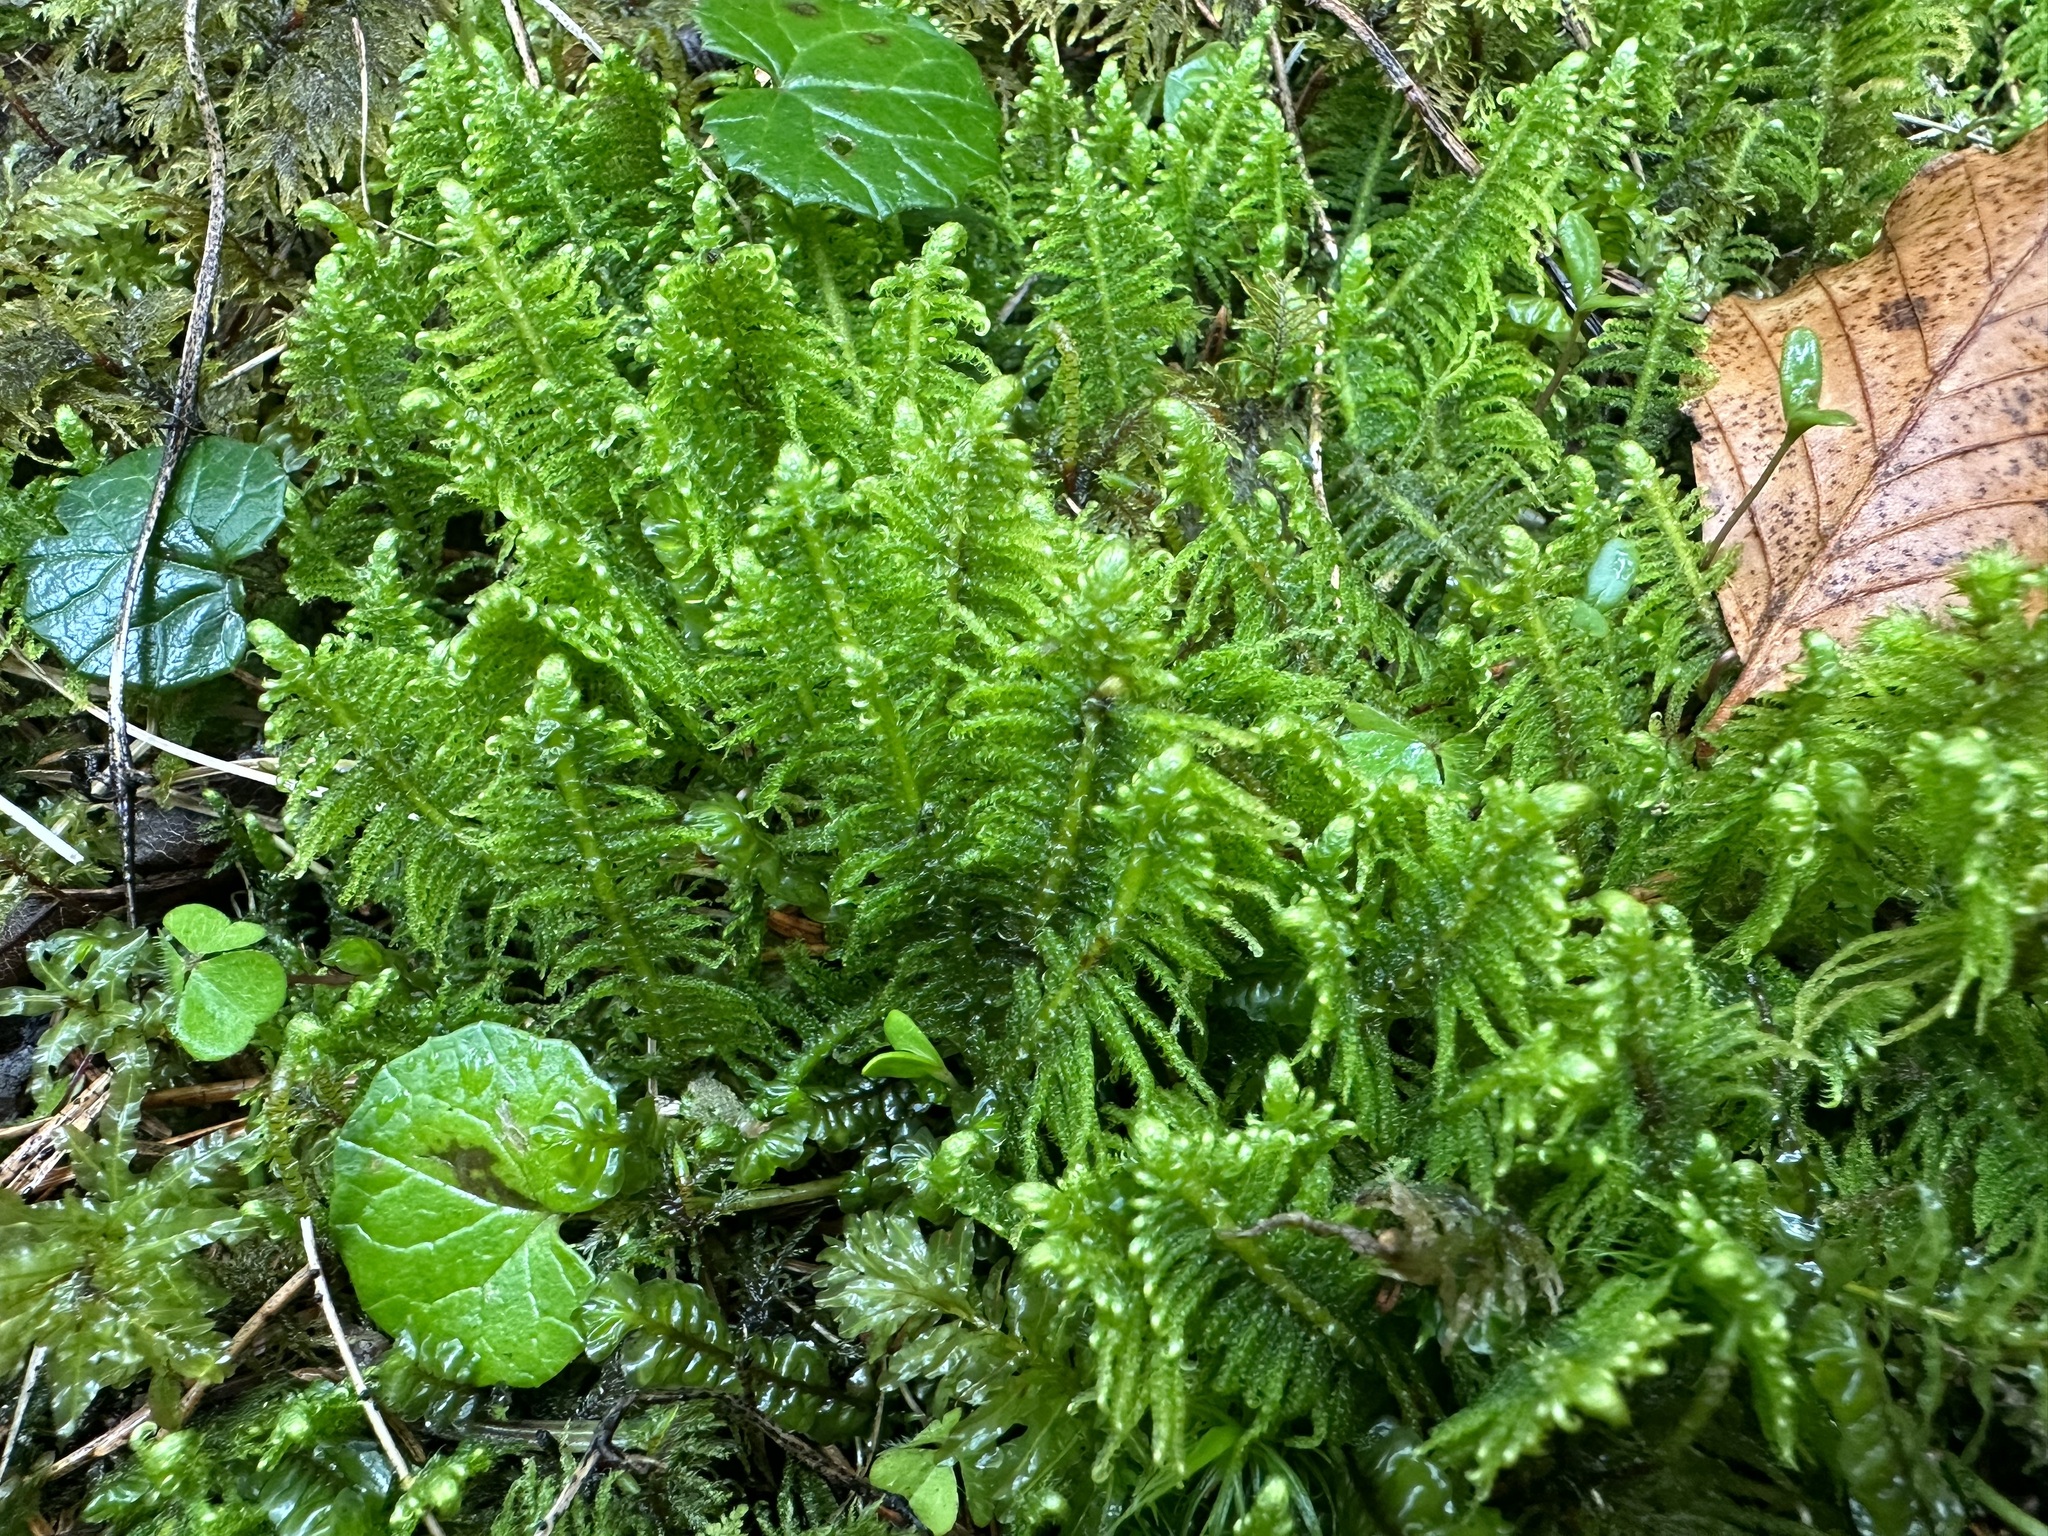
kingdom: Plantae
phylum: Bryophyta
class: Bryopsida
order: Hypnales
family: Pylaisiaceae
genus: Ptilium
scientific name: Ptilium crista-castrensis
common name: Knight's plume moss
